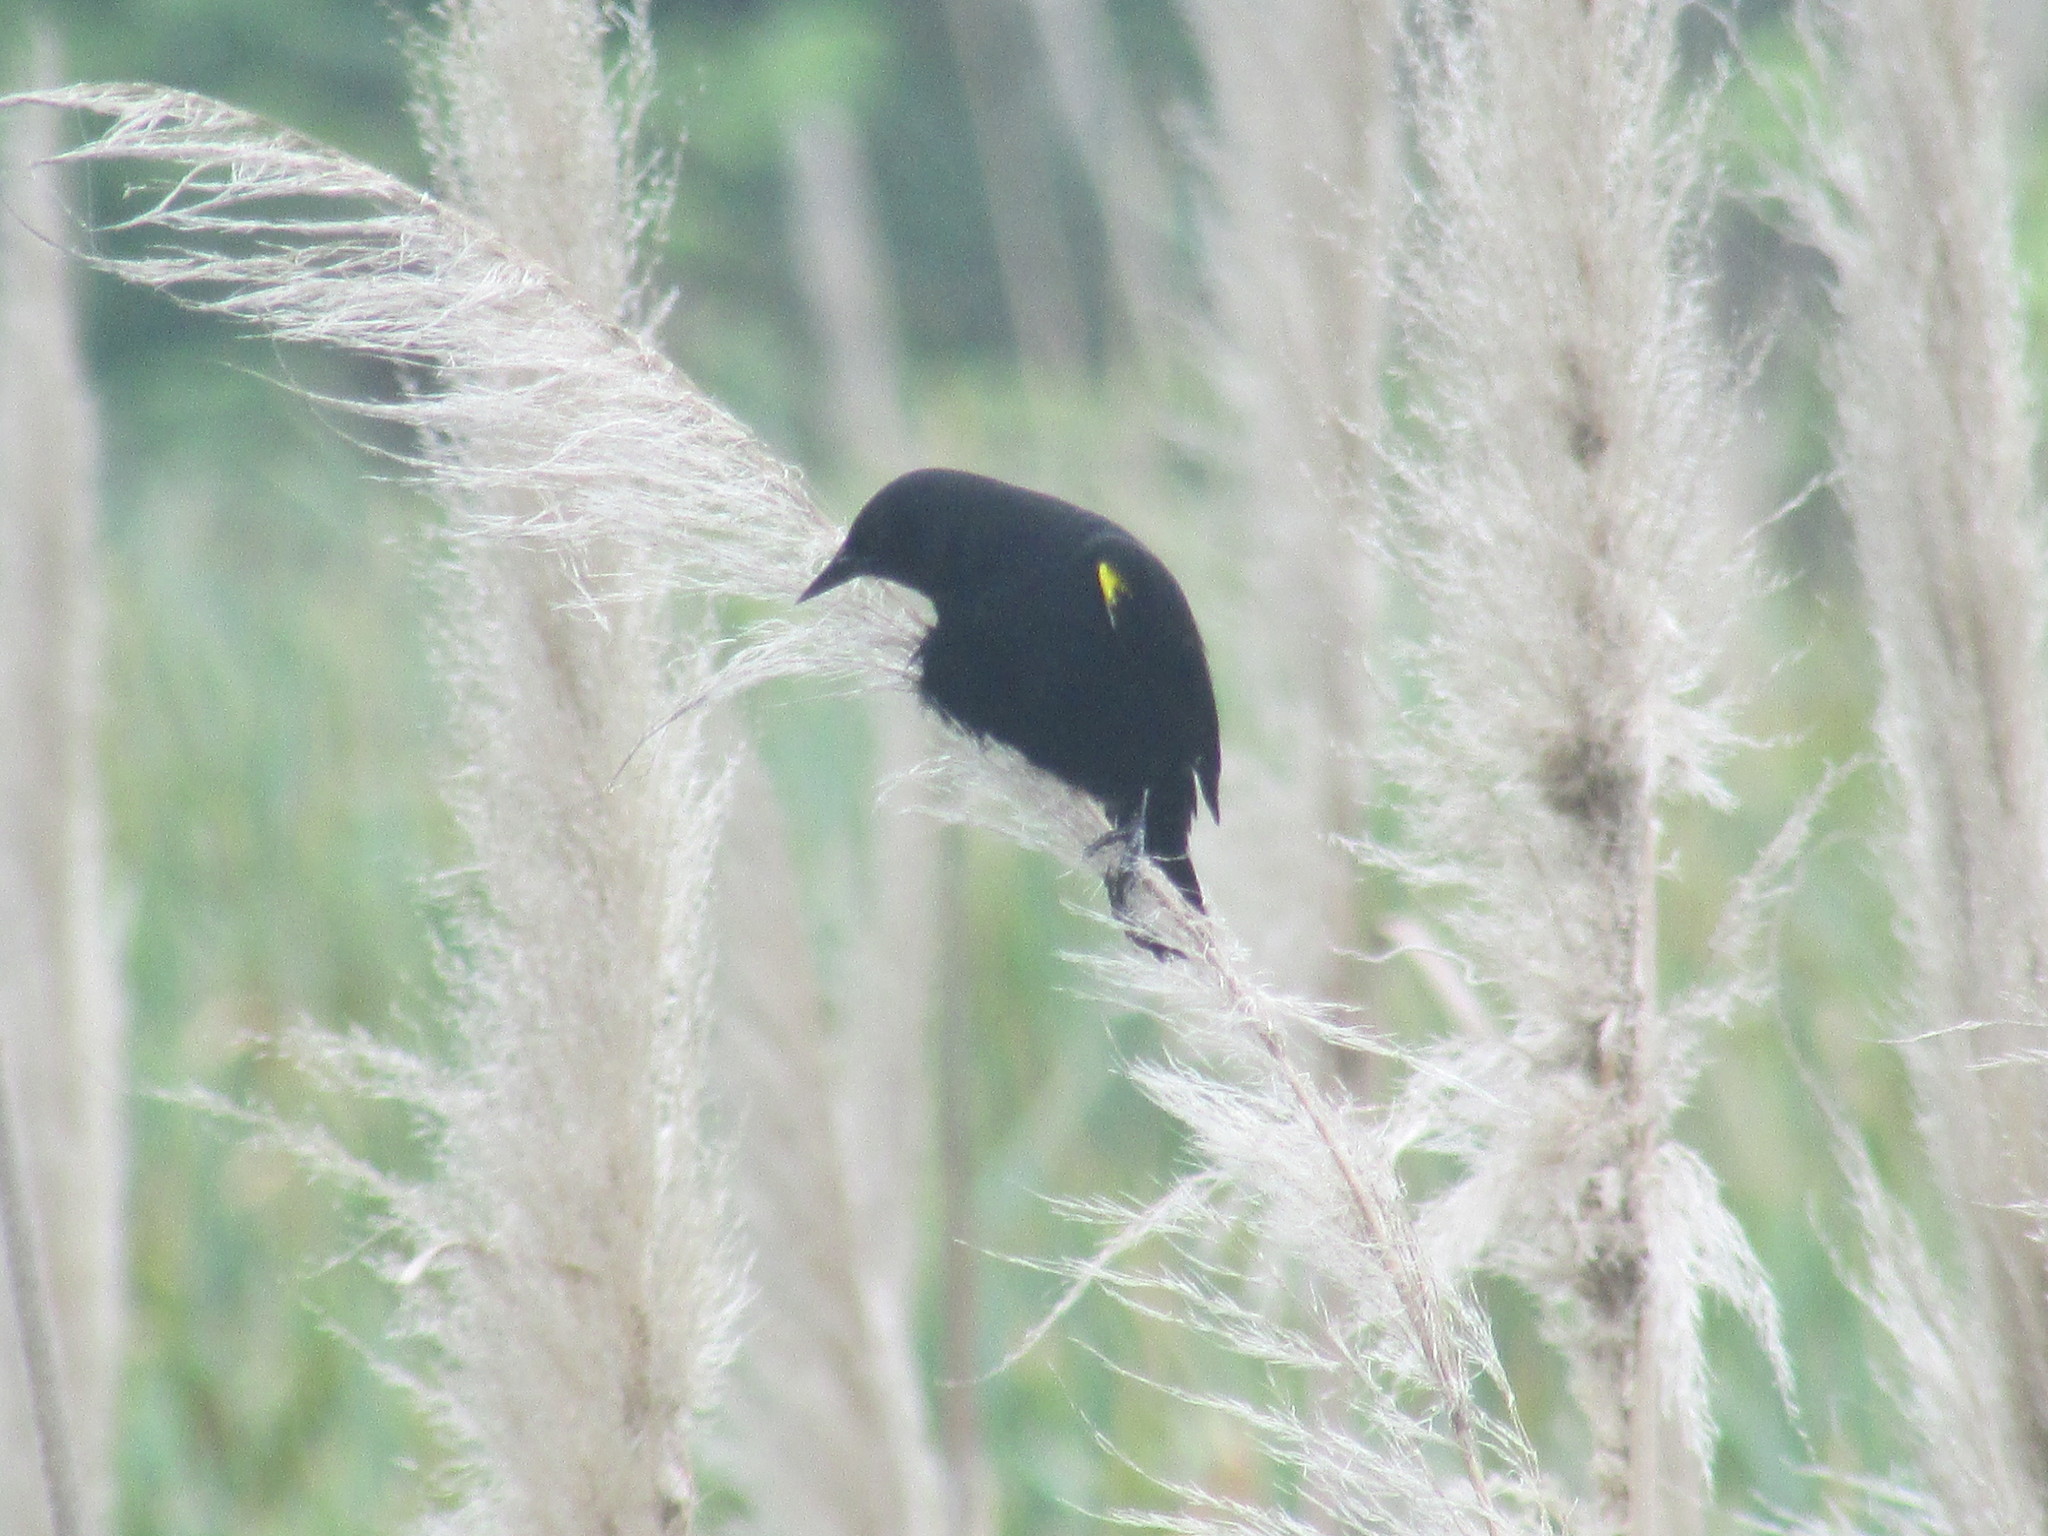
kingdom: Animalia
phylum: Chordata
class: Aves
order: Passeriformes
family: Icteridae
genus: Agelasticus
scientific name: Agelasticus thilius
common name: Yellow-winged blackbird
